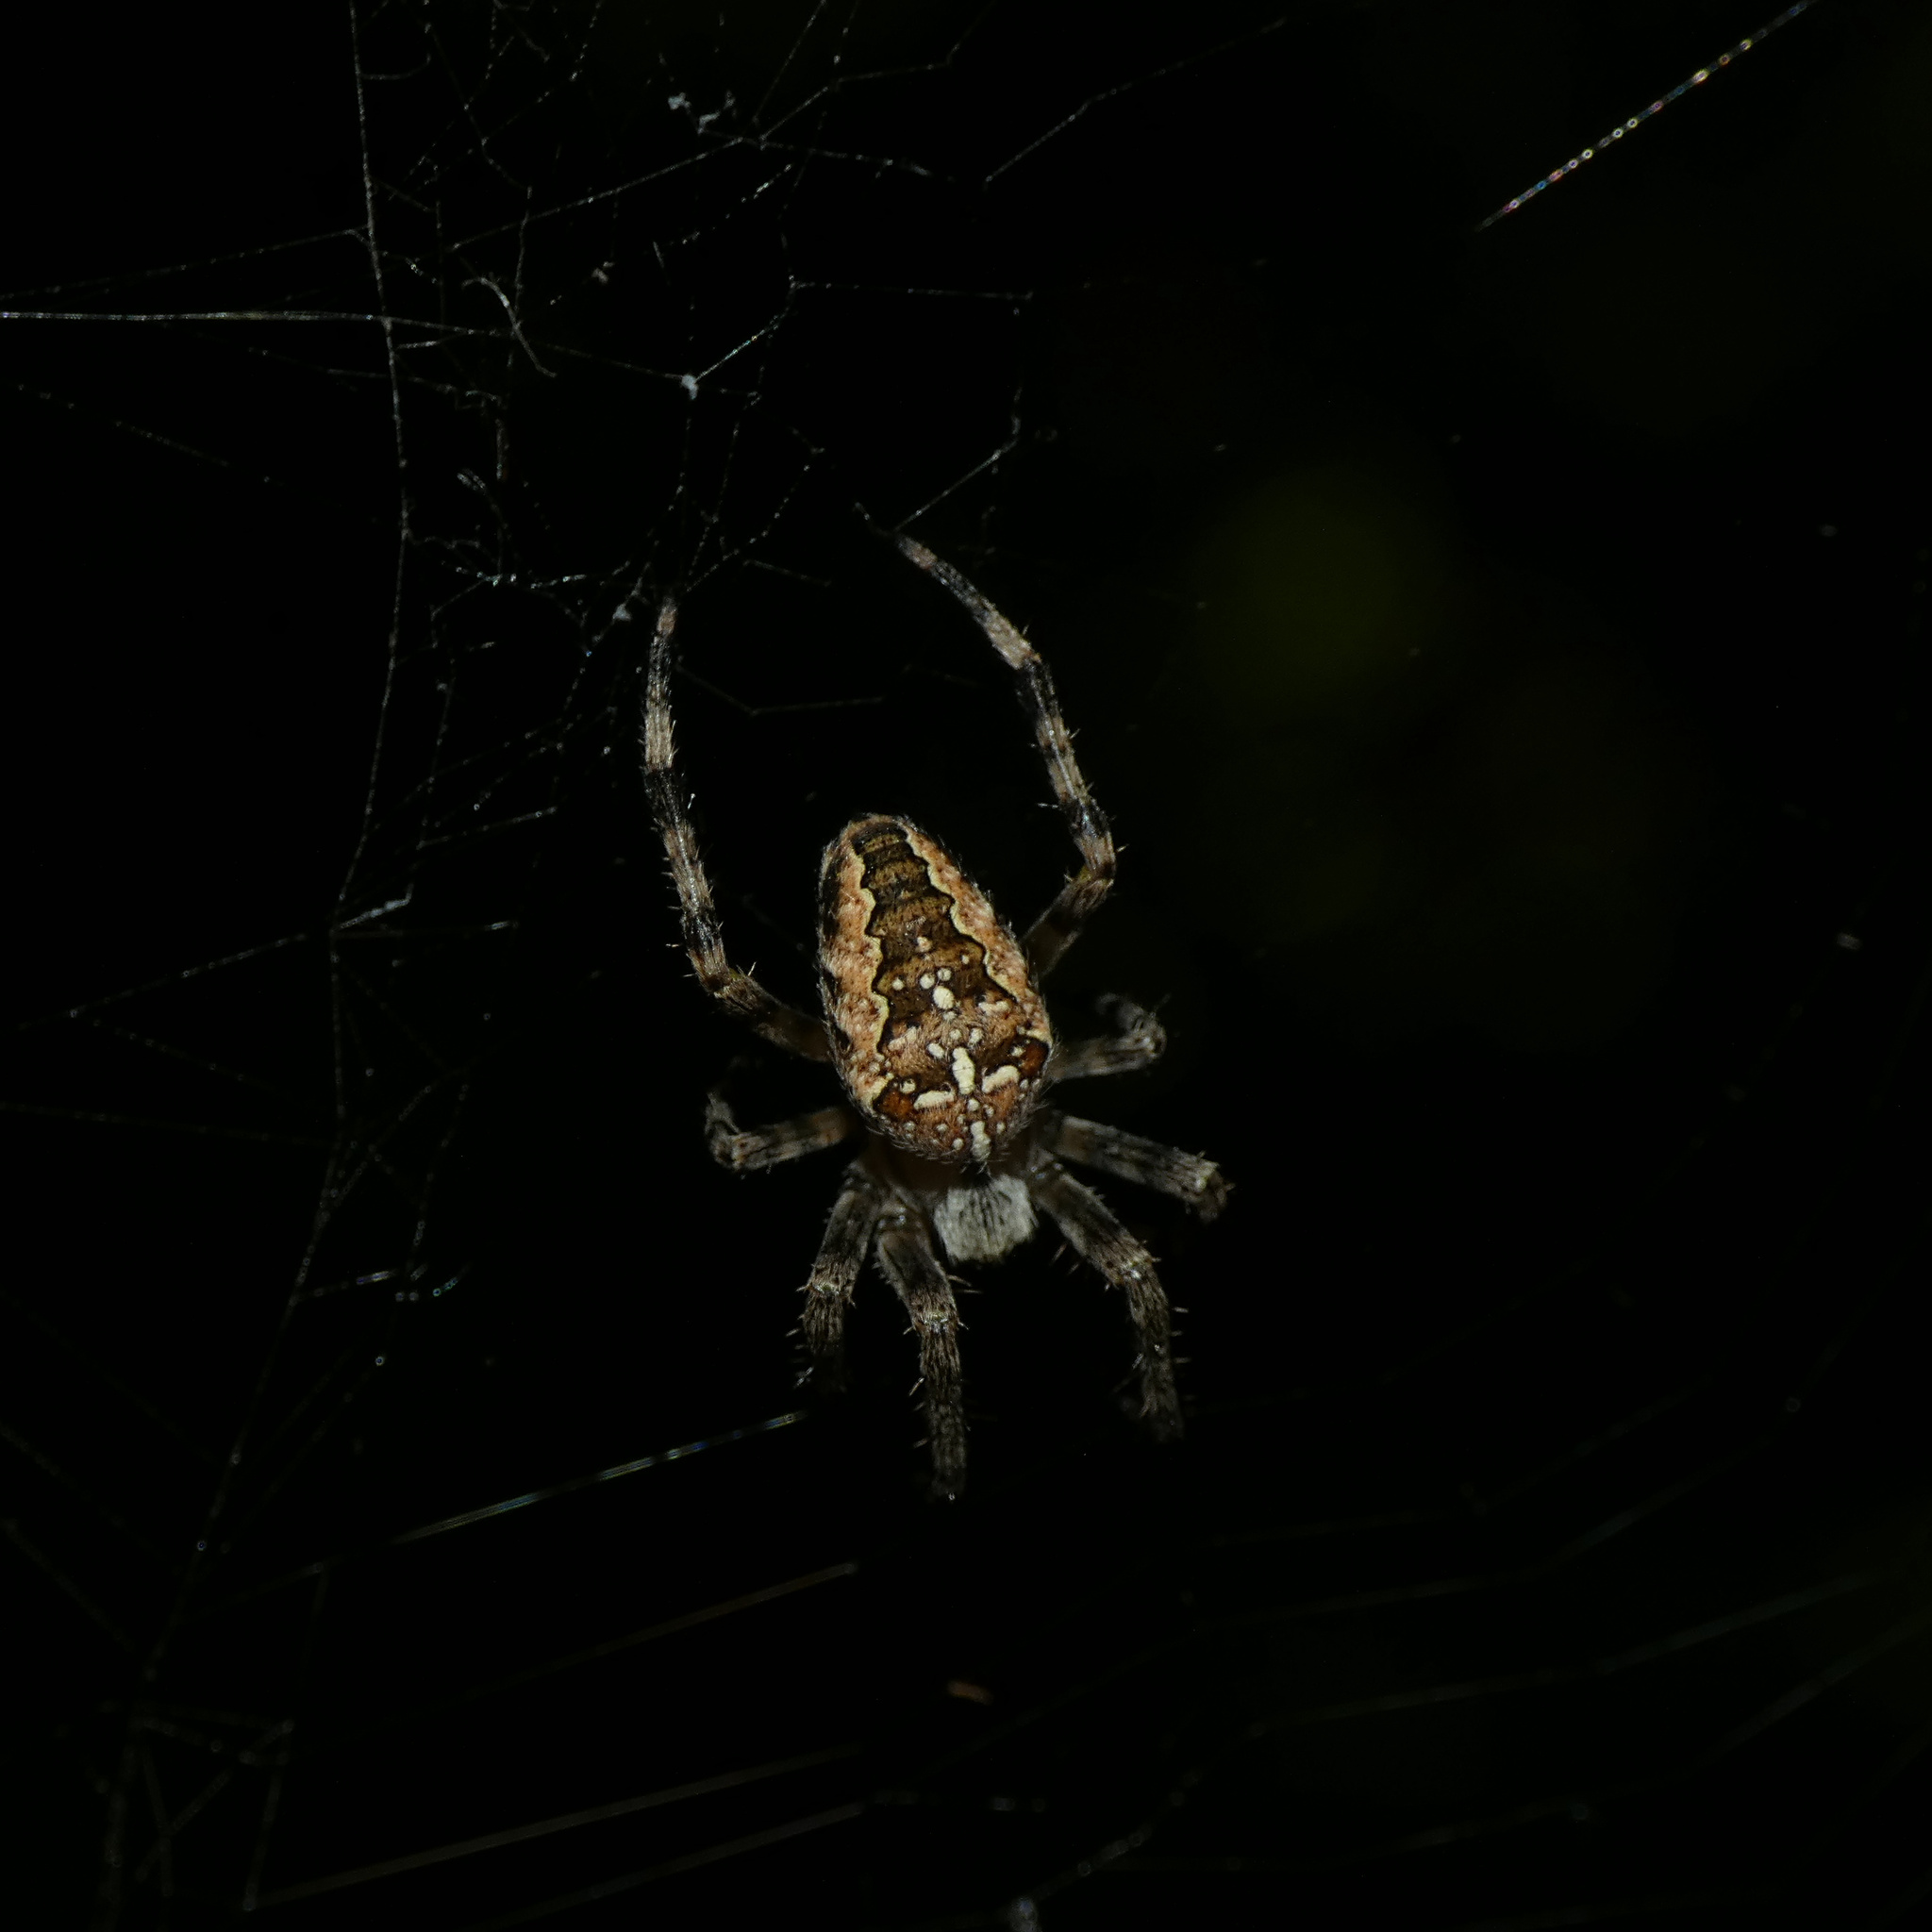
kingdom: Animalia
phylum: Arthropoda
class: Arachnida
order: Araneae
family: Araneidae
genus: Araneus
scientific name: Araneus diadematus
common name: Cross orbweaver
